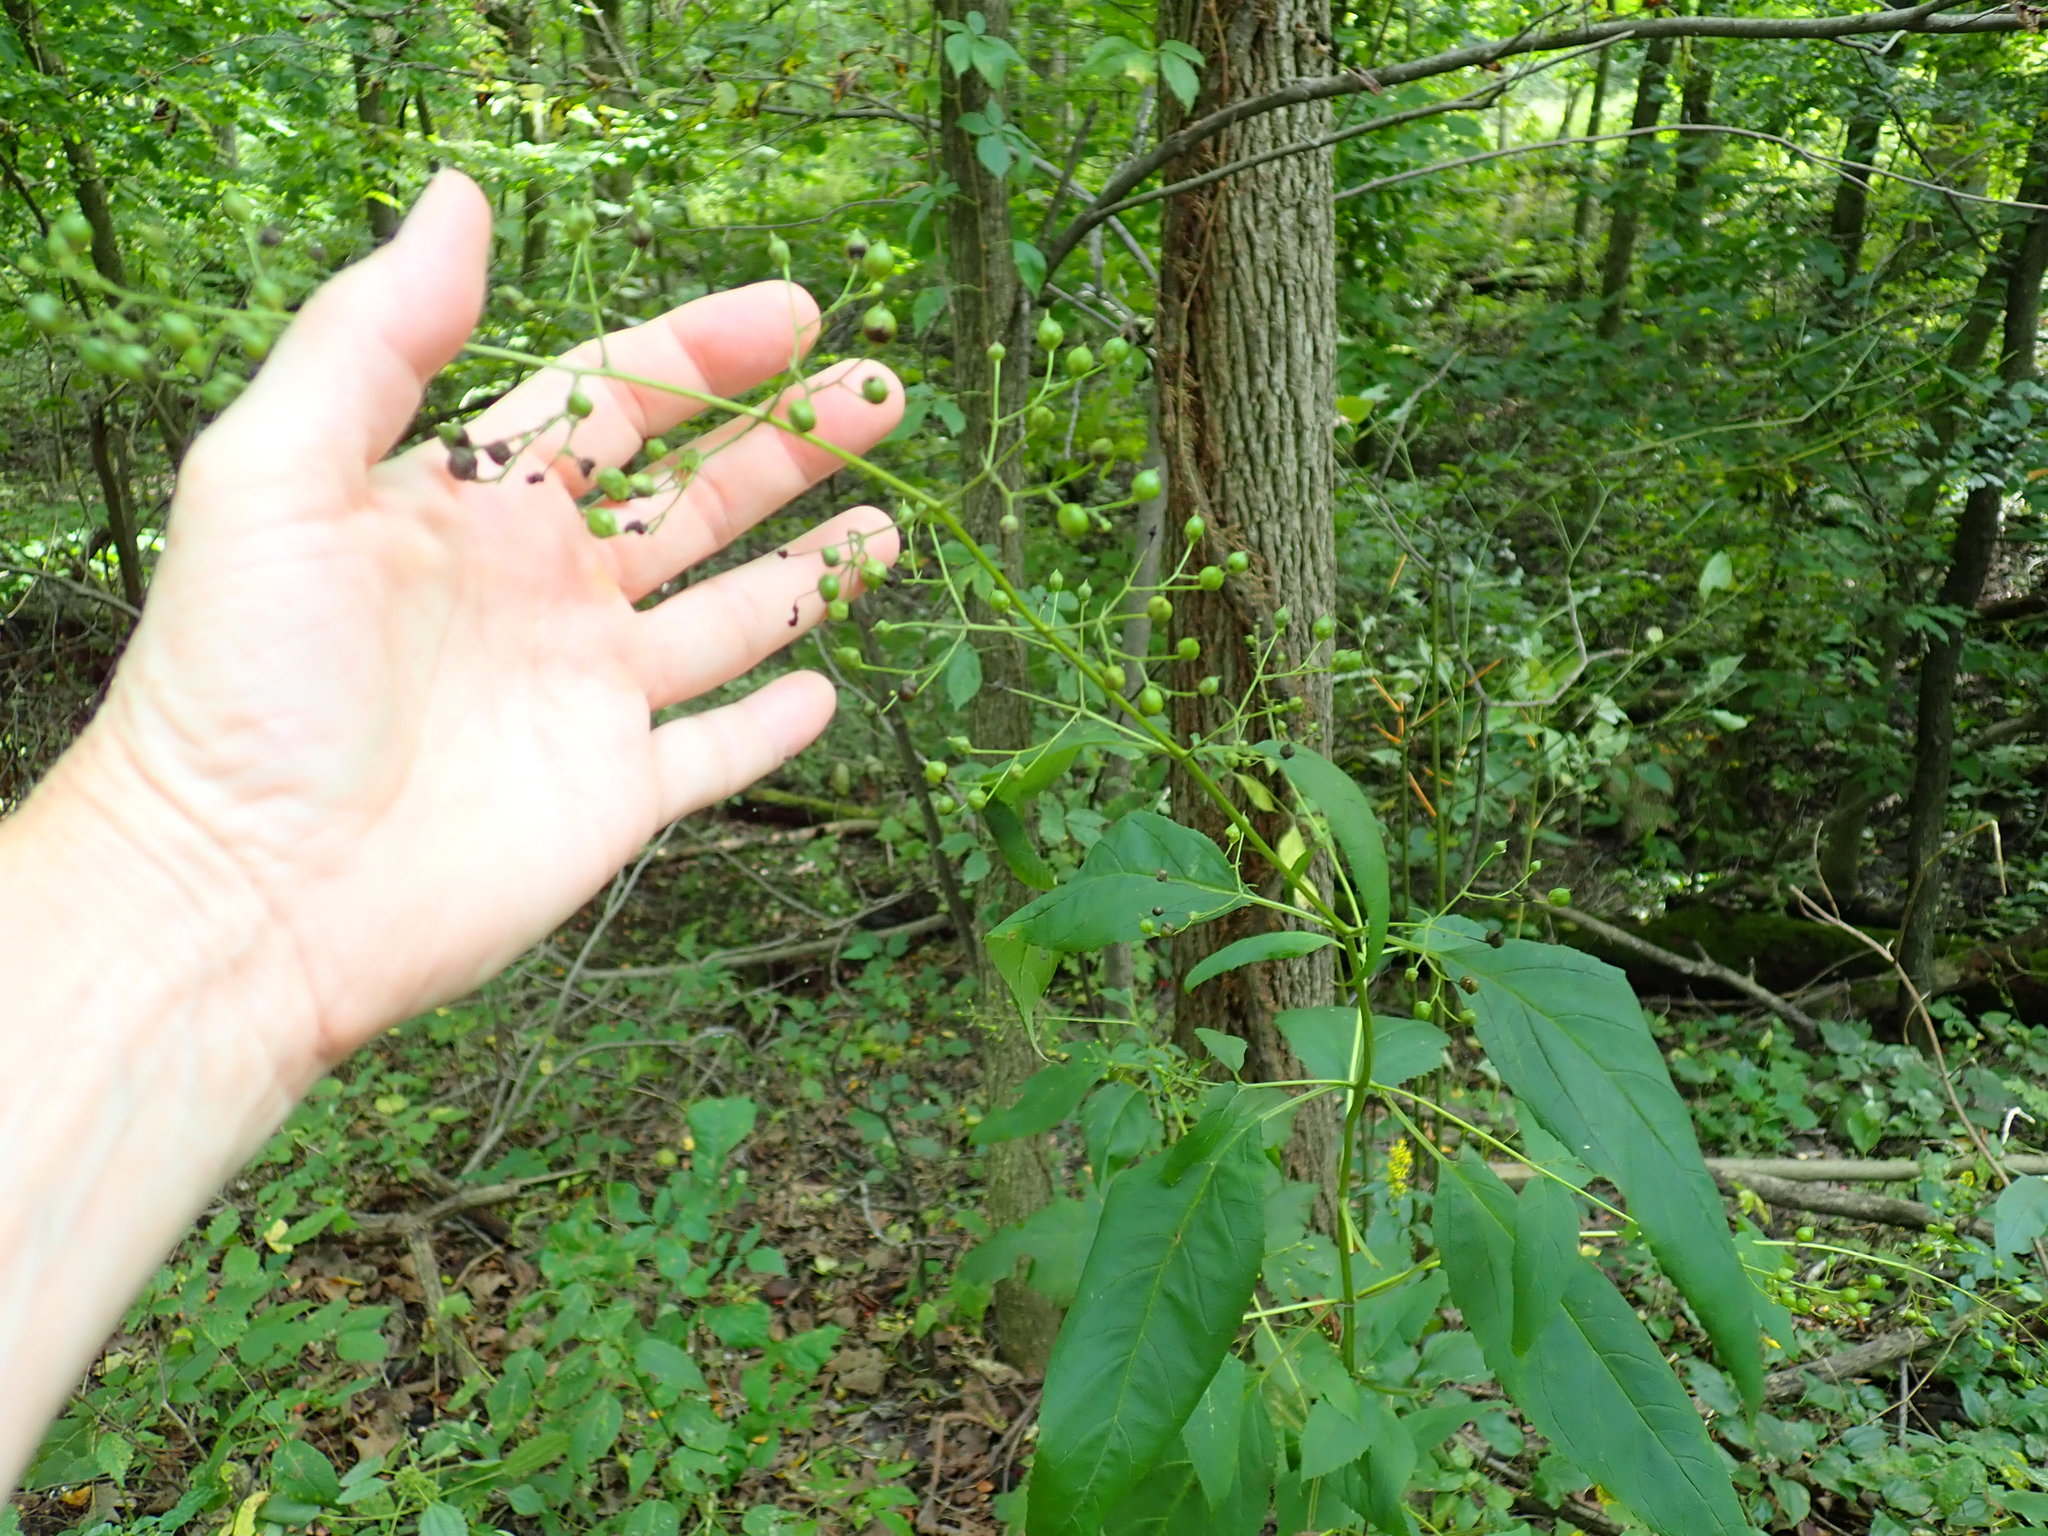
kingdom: Plantae
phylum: Tracheophyta
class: Magnoliopsida
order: Lamiales
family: Scrophulariaceae
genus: Scrophularia
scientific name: Scrophularia marilandica
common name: Eastern figwort
